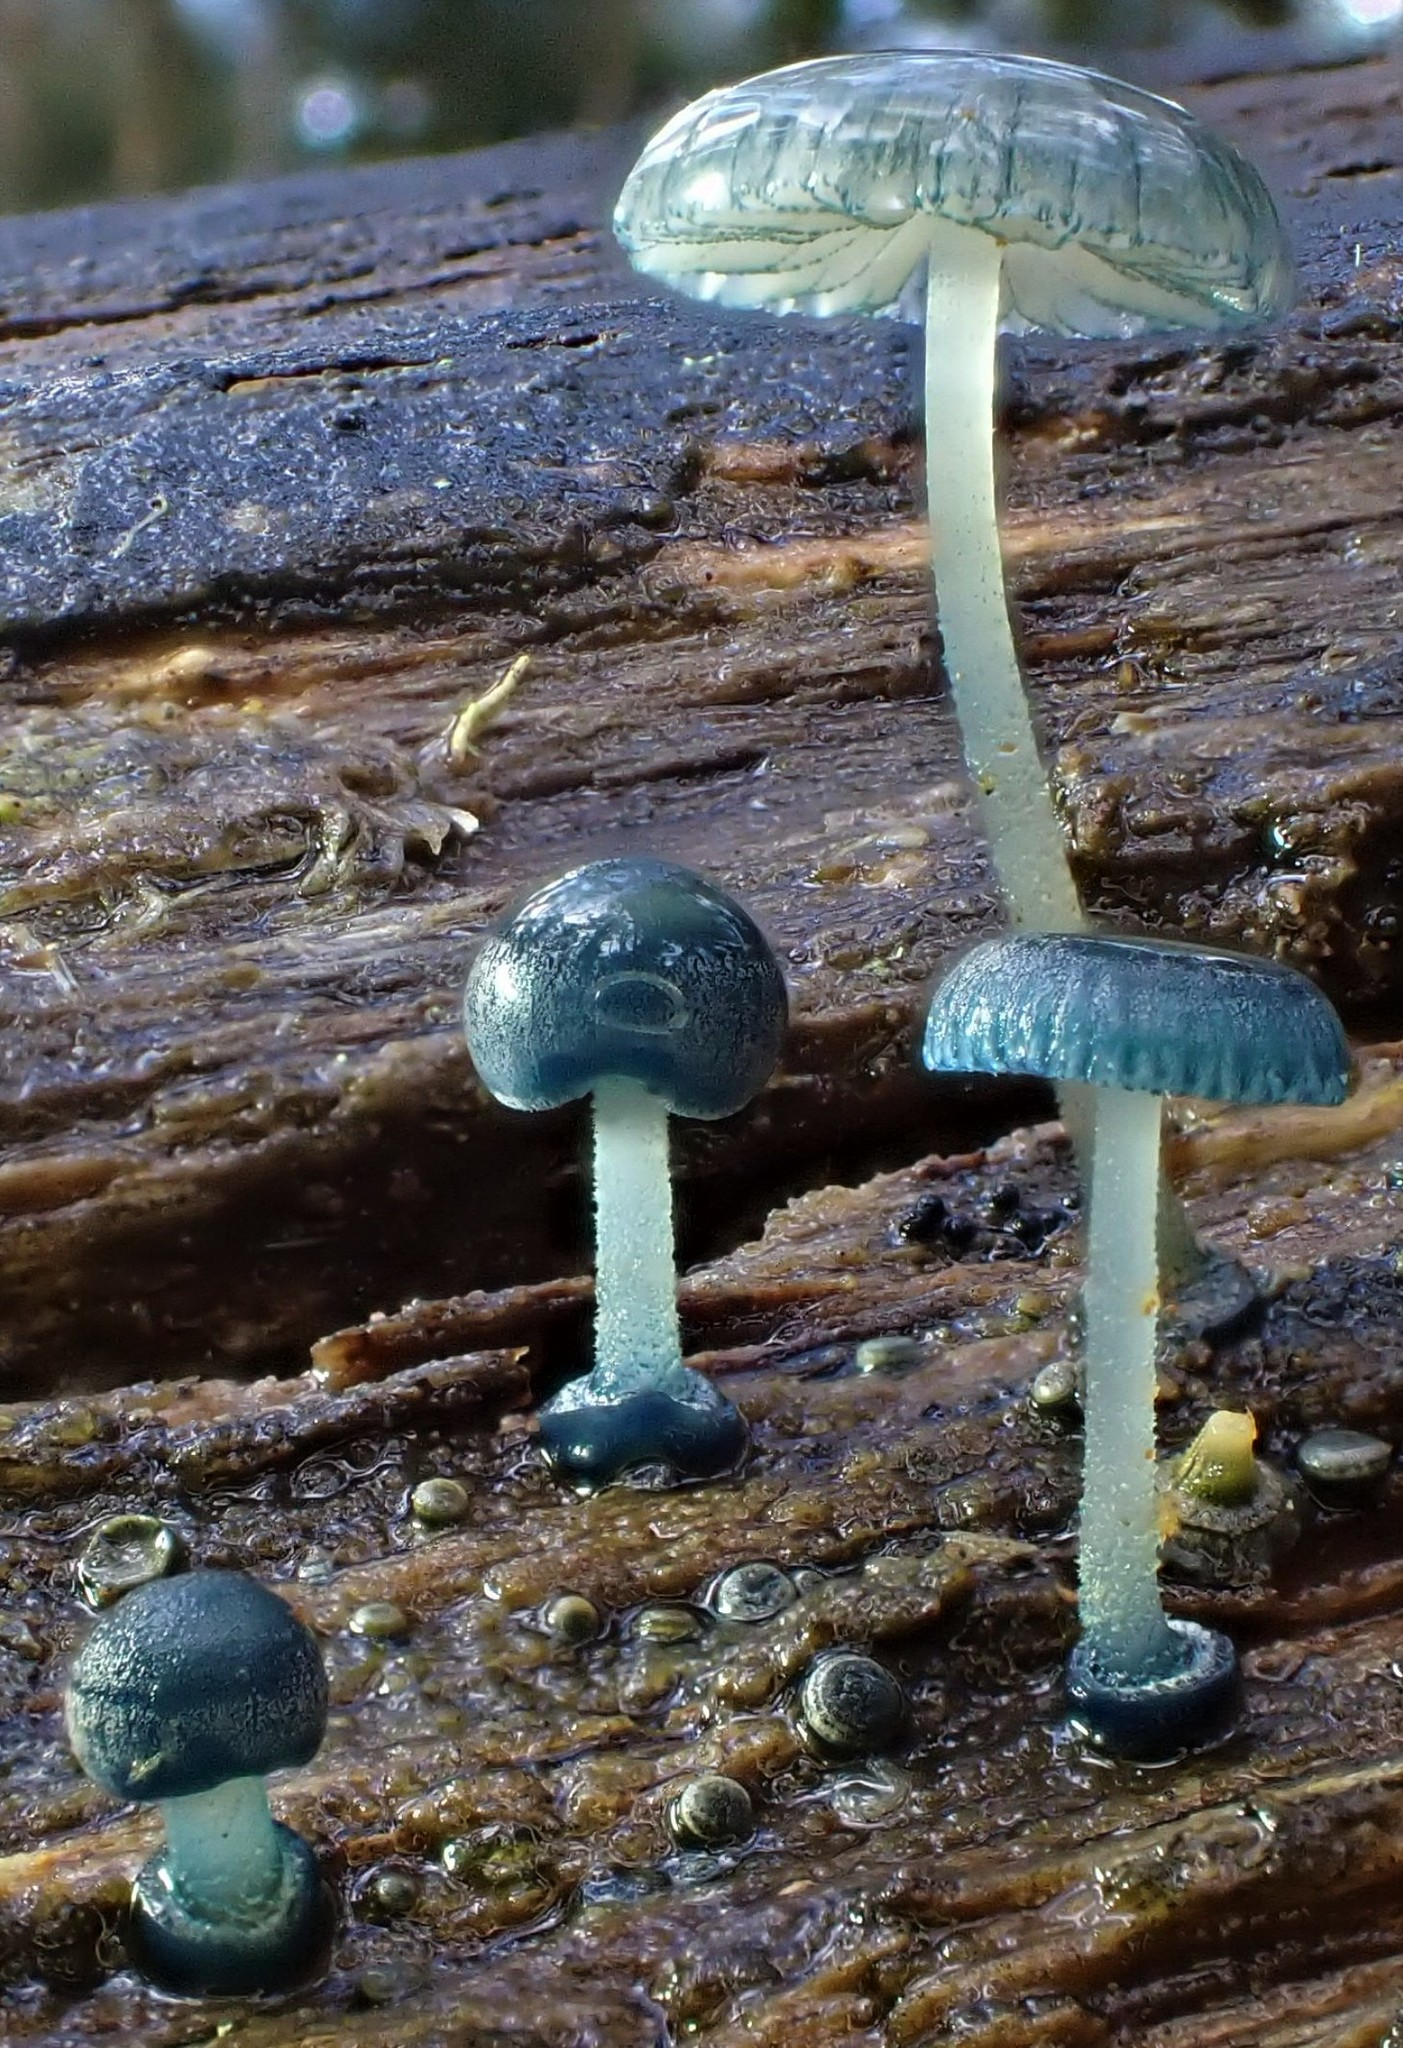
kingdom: Fungi
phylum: Basidiomycota
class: Agaricomycetes
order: Agaricales
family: Mycenaceae
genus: Mycena
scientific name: Mycena interrupta
